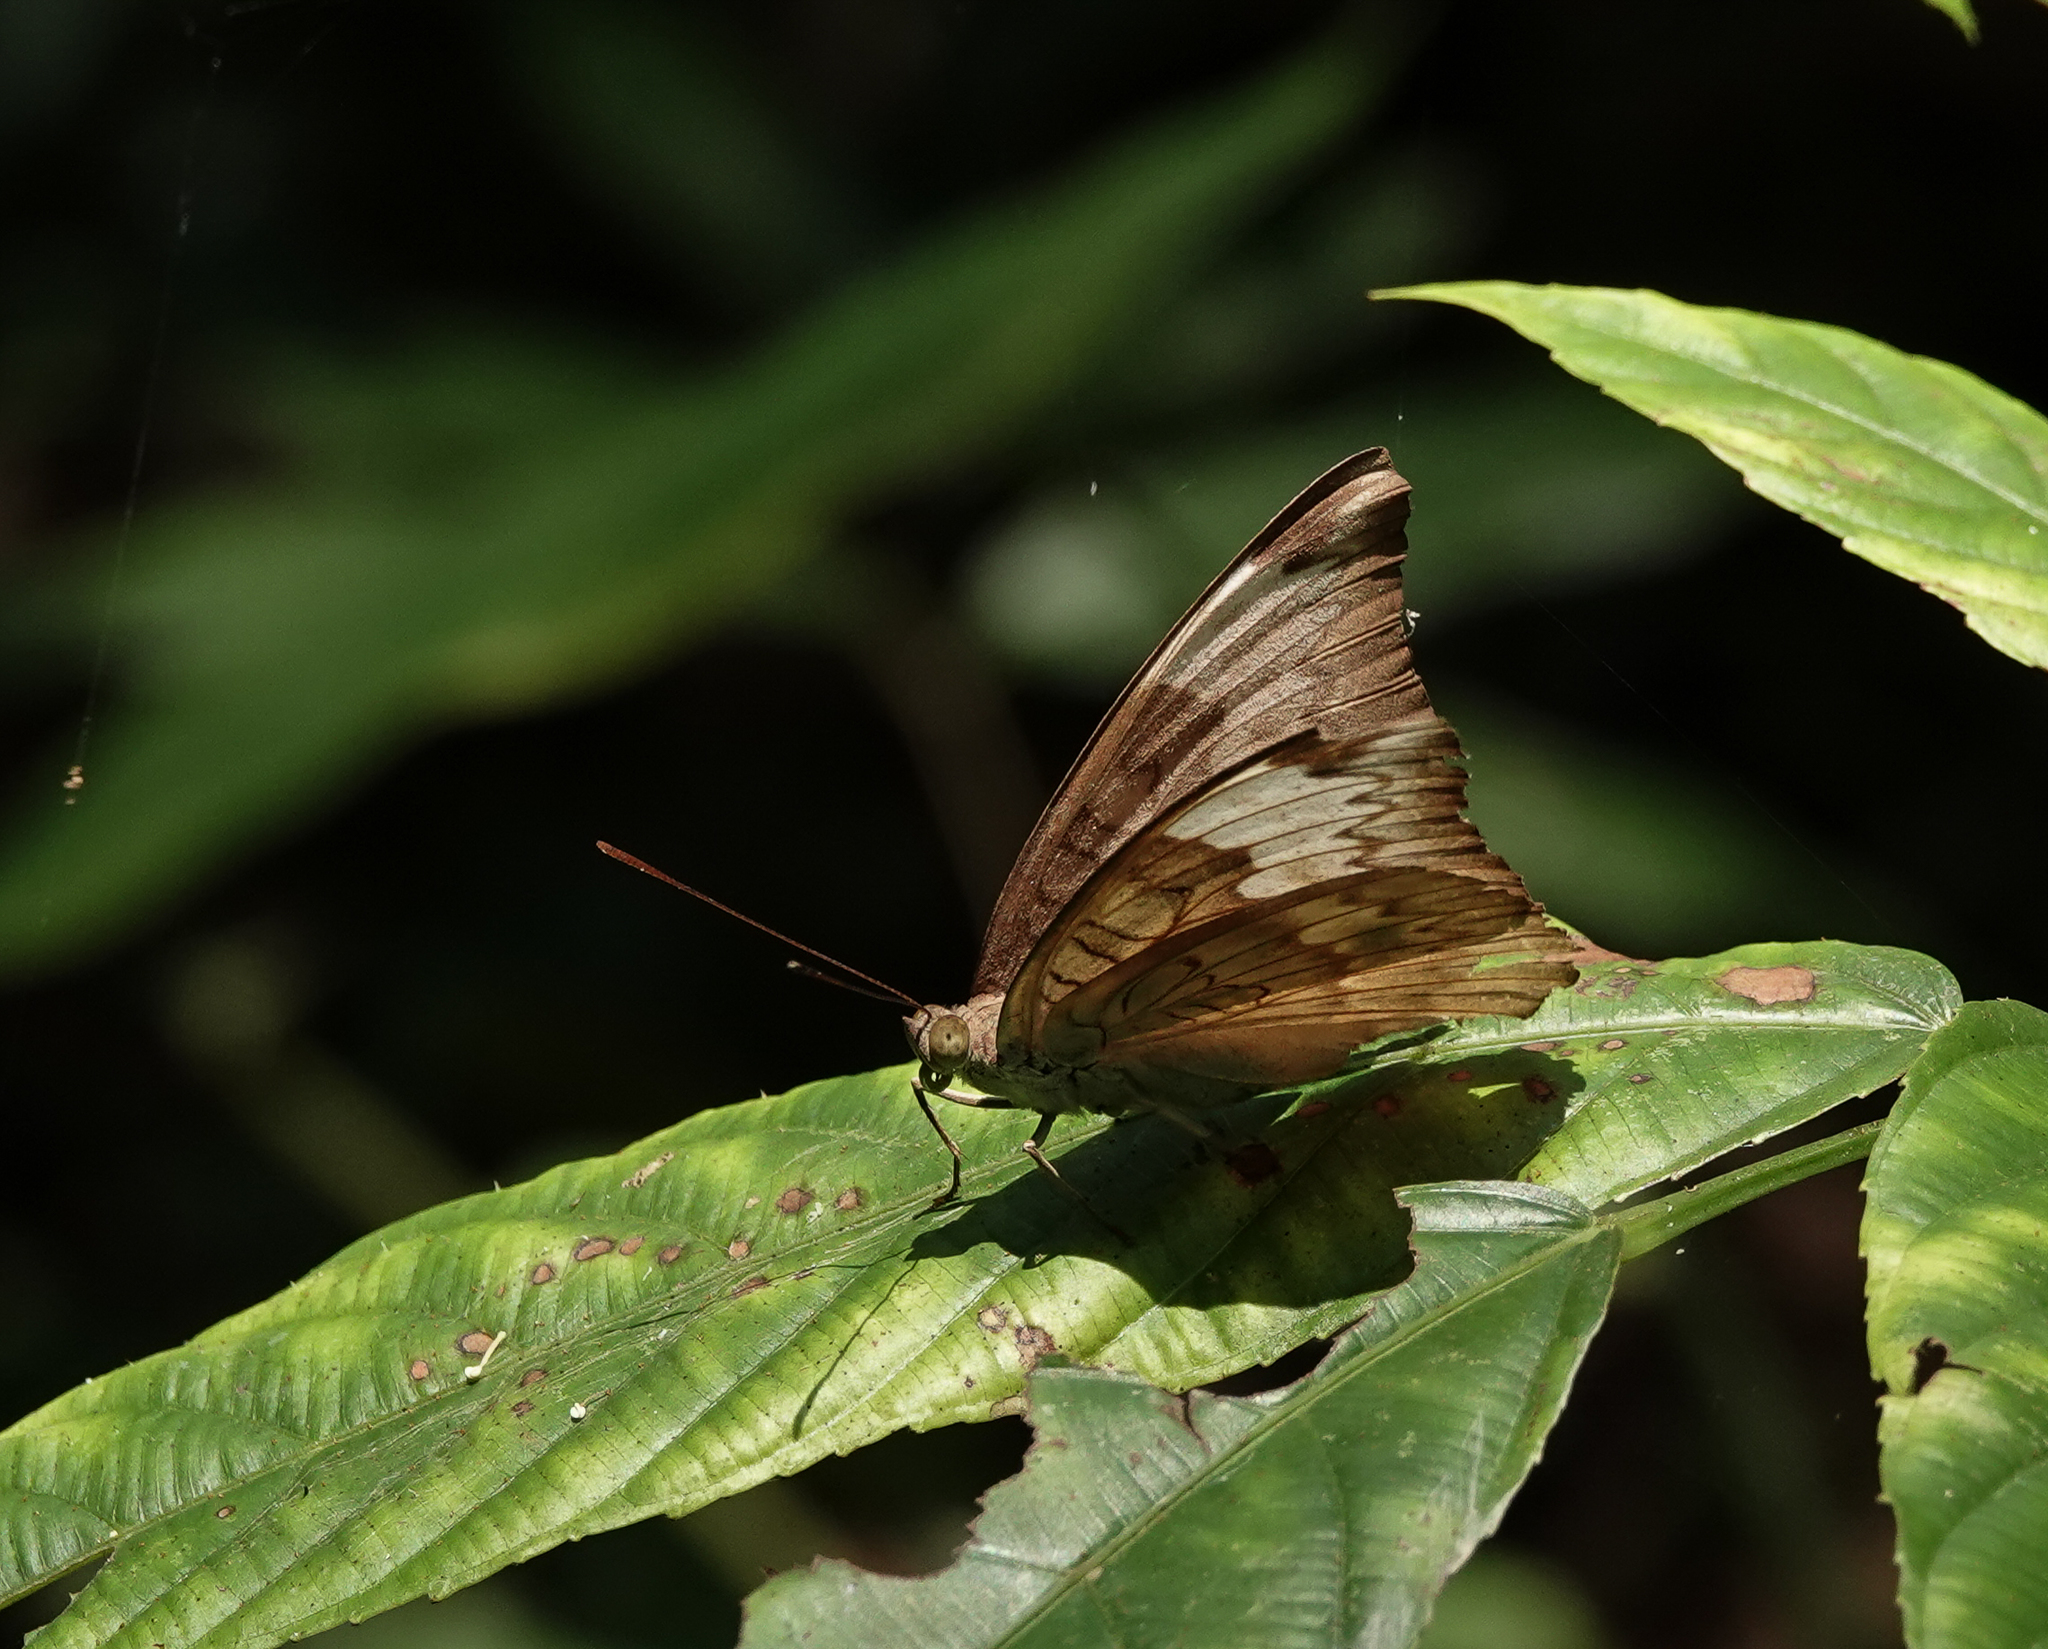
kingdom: Animalia
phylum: Arthropoda
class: Insecta
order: Lepidoptera
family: Nymphalidae
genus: Euthalia
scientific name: Euthalia monina
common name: Powdered baron
